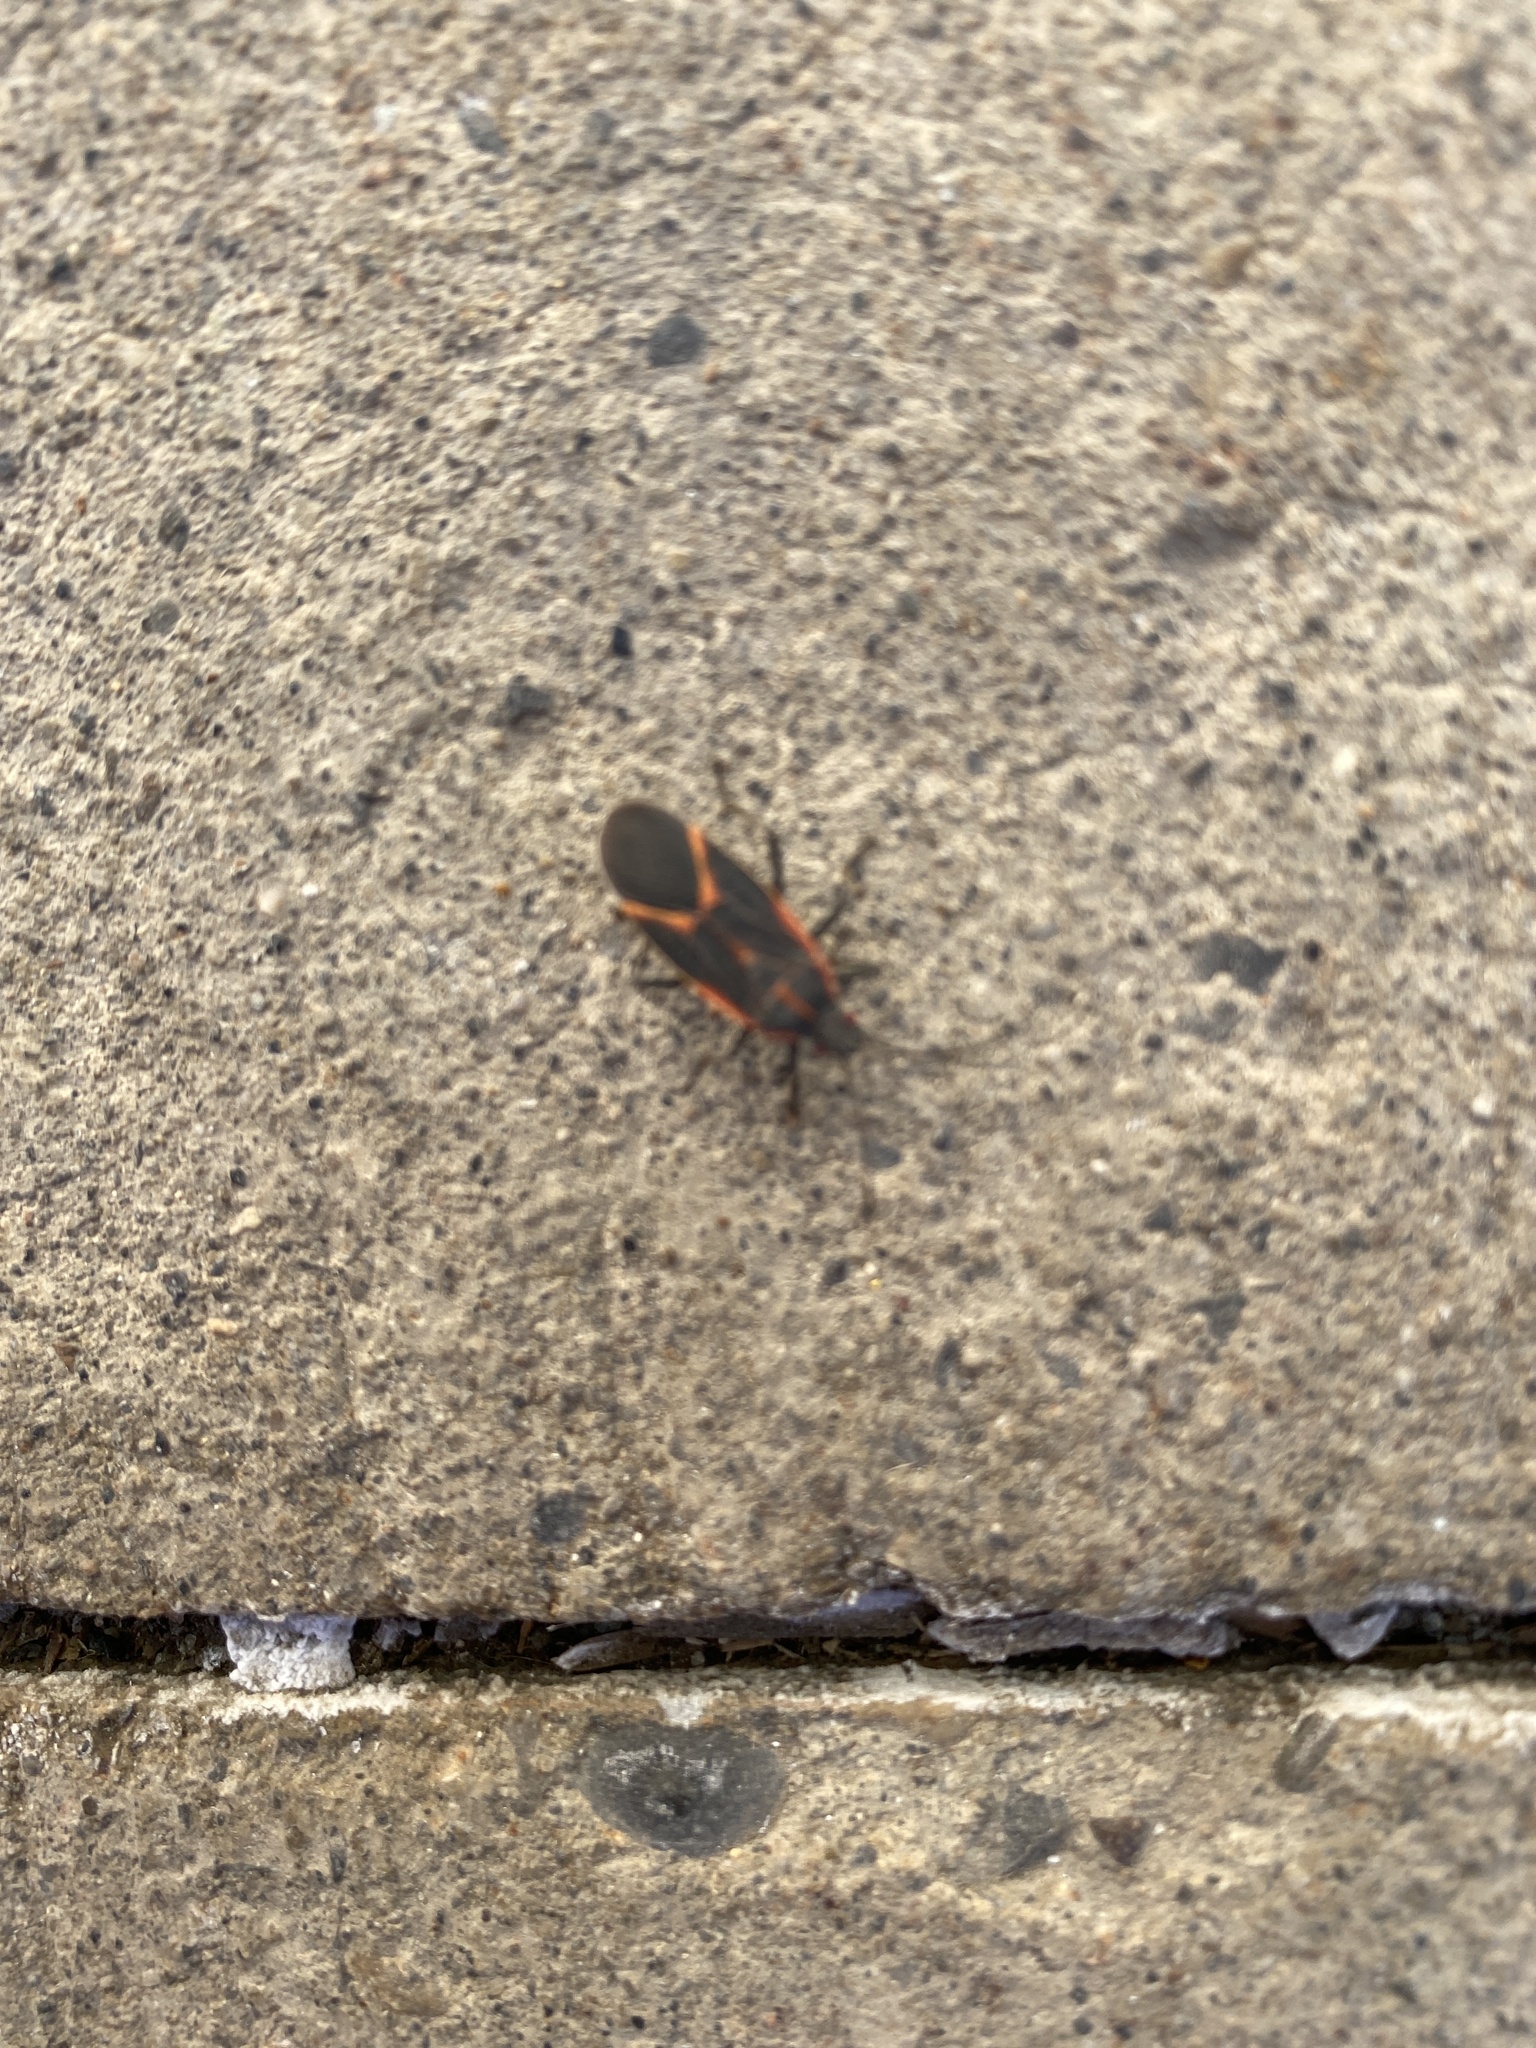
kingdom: Animalia
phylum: Arthropoda
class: Insecta
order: Hemiptera
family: Rhopalidae
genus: Boisea
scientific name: Boisea trivittata
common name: Boxelder bug
